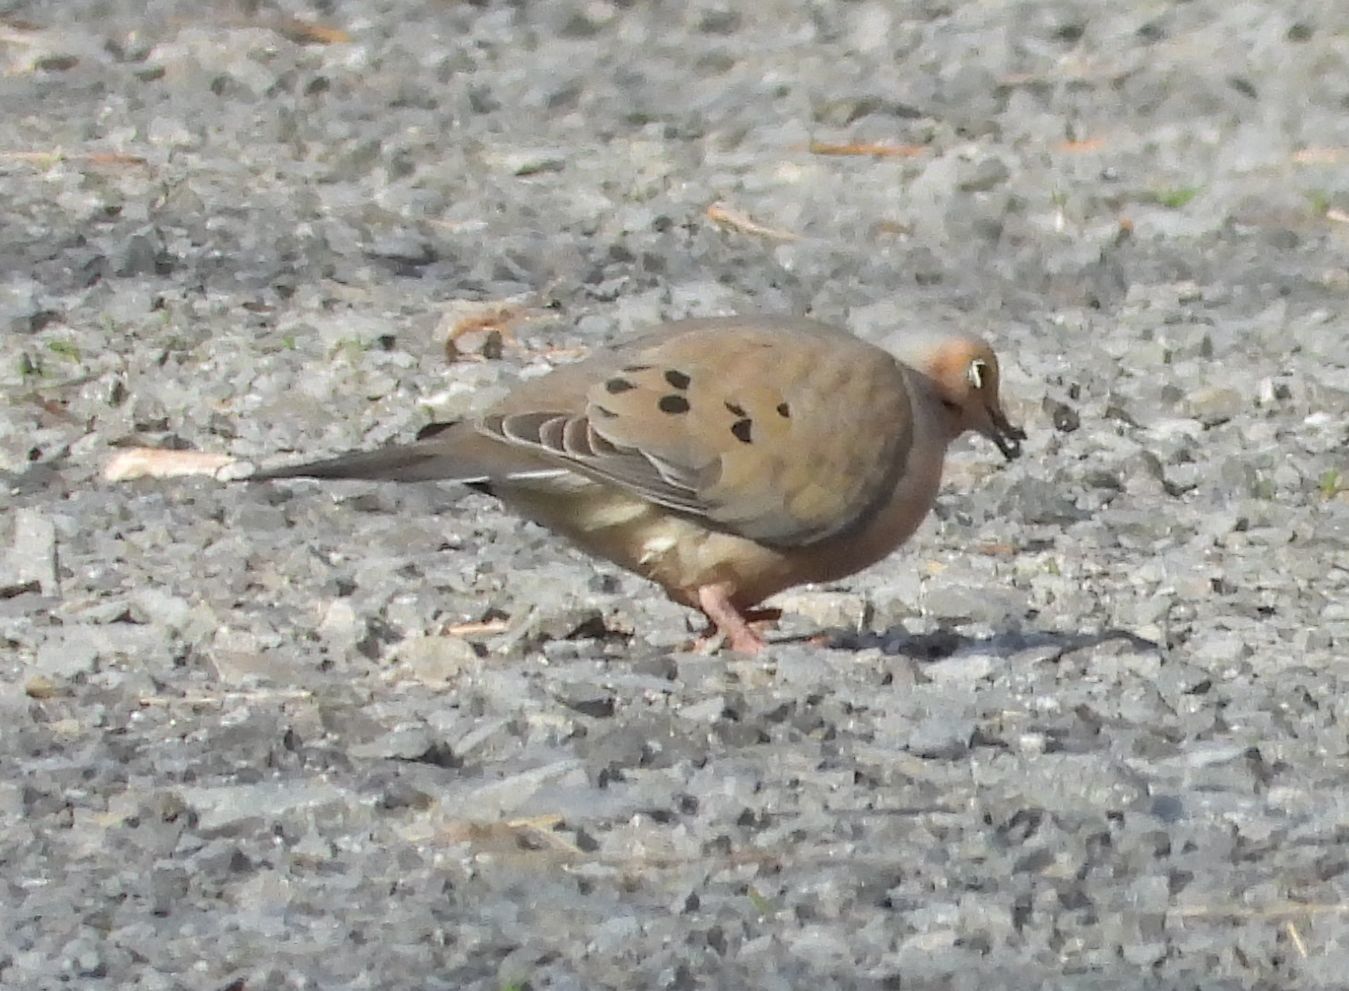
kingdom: Animalia
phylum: Chordata
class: Aves
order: Columbiformes
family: Columbidae
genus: Zenaida
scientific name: Zenaida macroura
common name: Mourning dove
